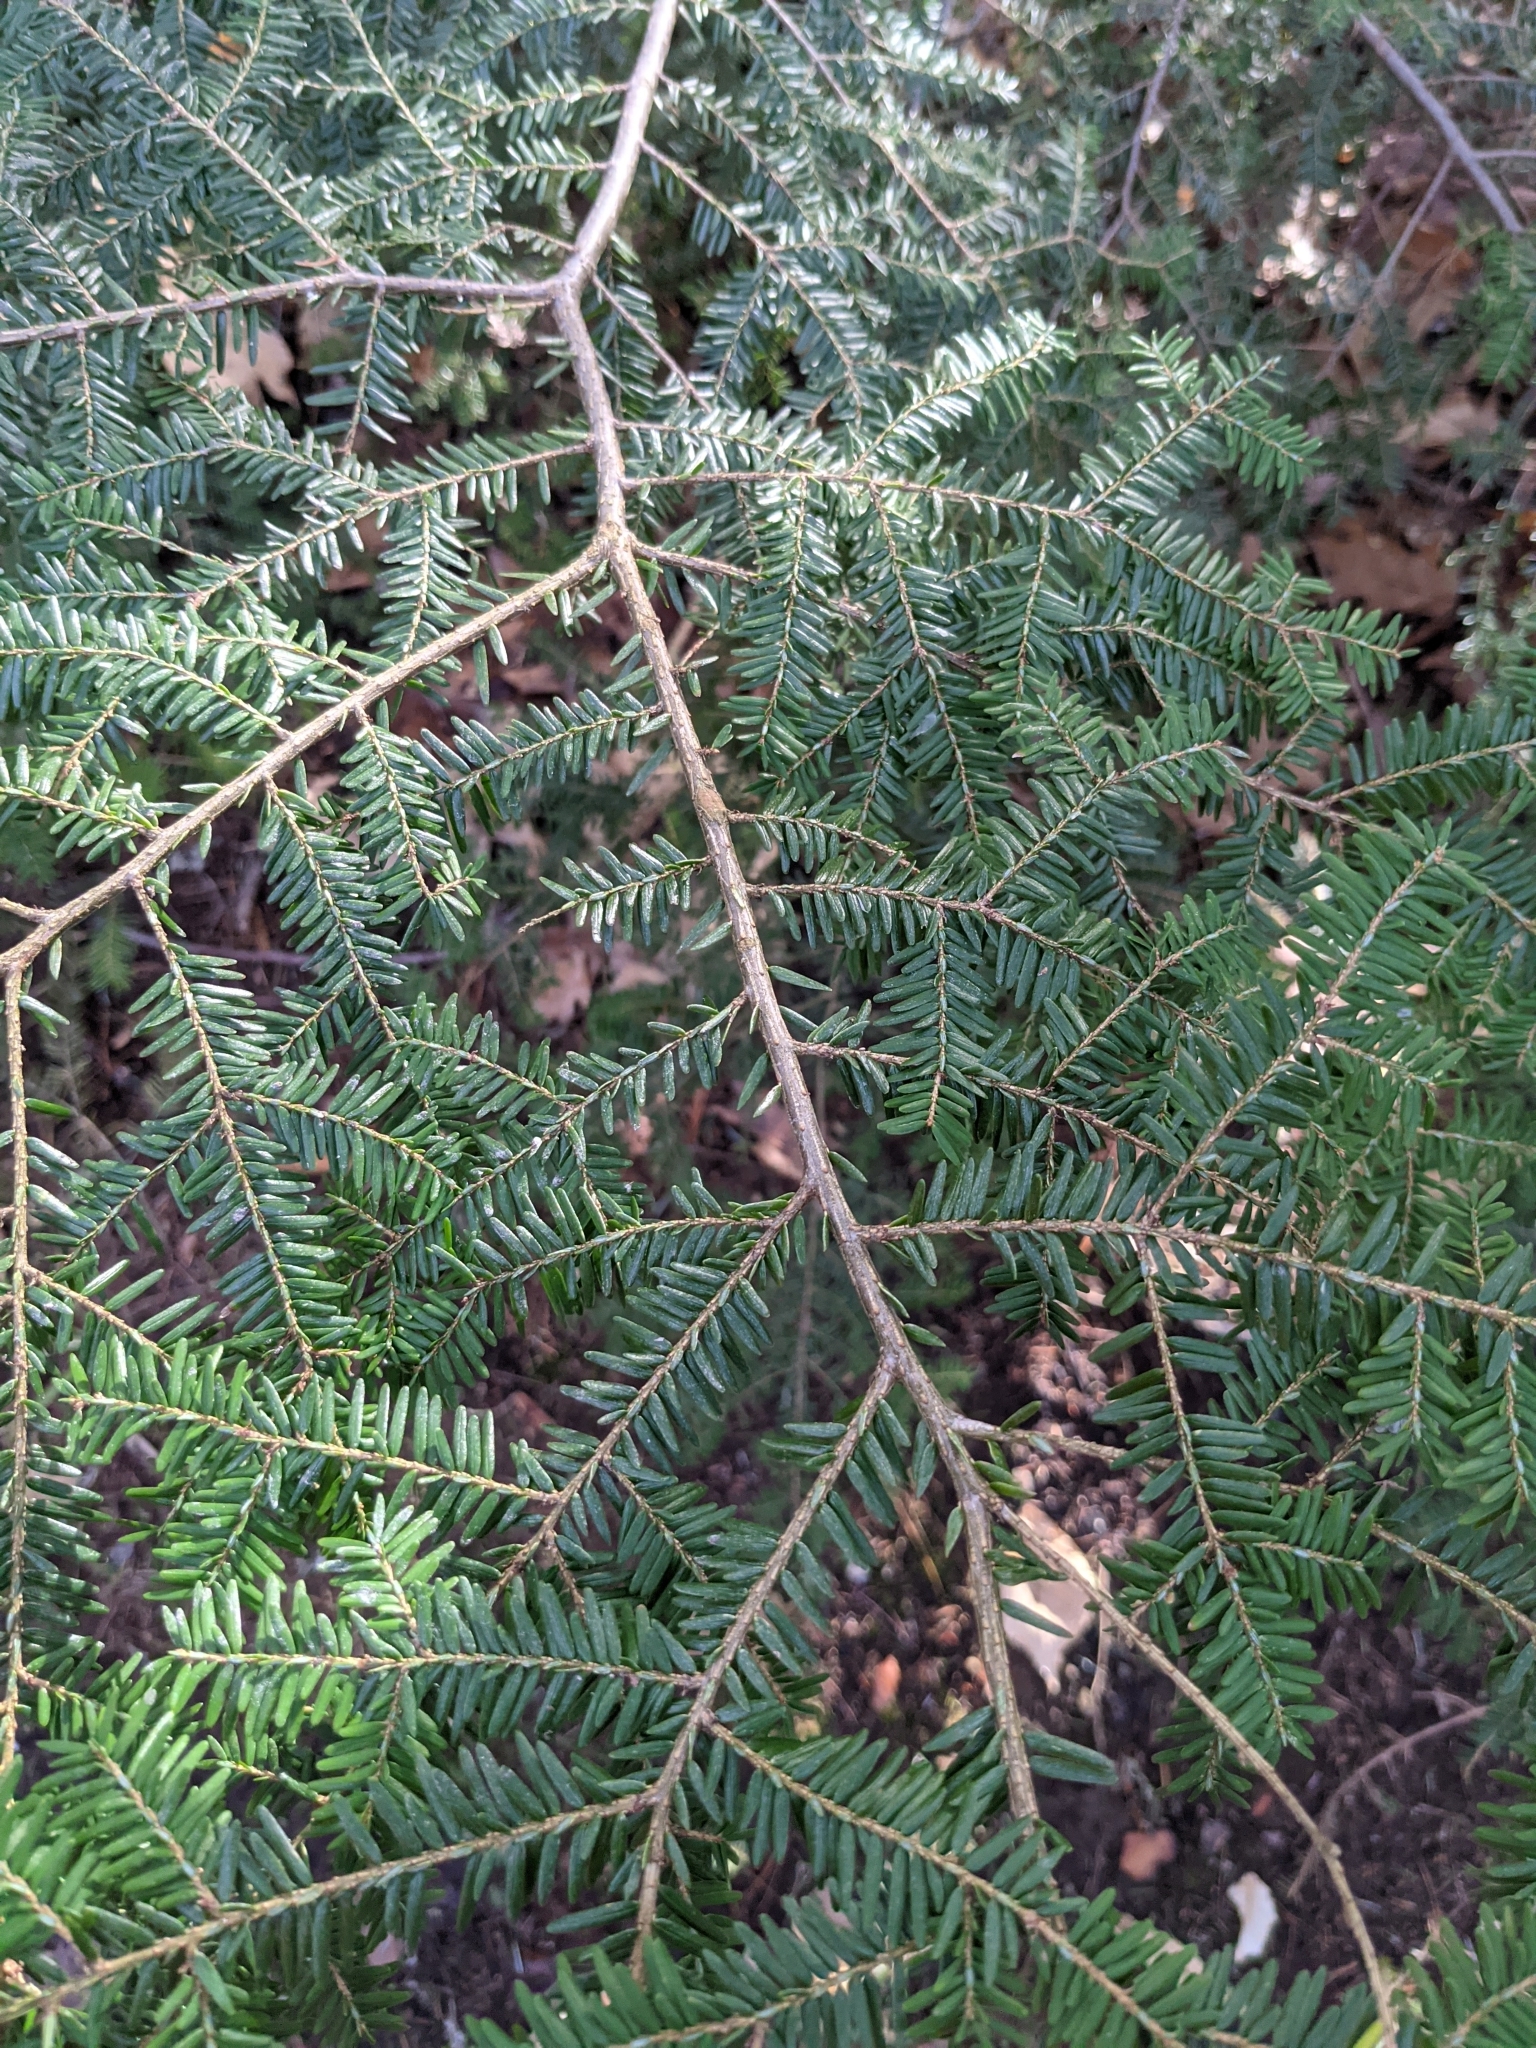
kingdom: Plantae
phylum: Tracheophyta
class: Pinopsida
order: Pinales
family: Pinaceae
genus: Tsuga
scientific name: Tsuga canadensis
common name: Eastern hemlock
